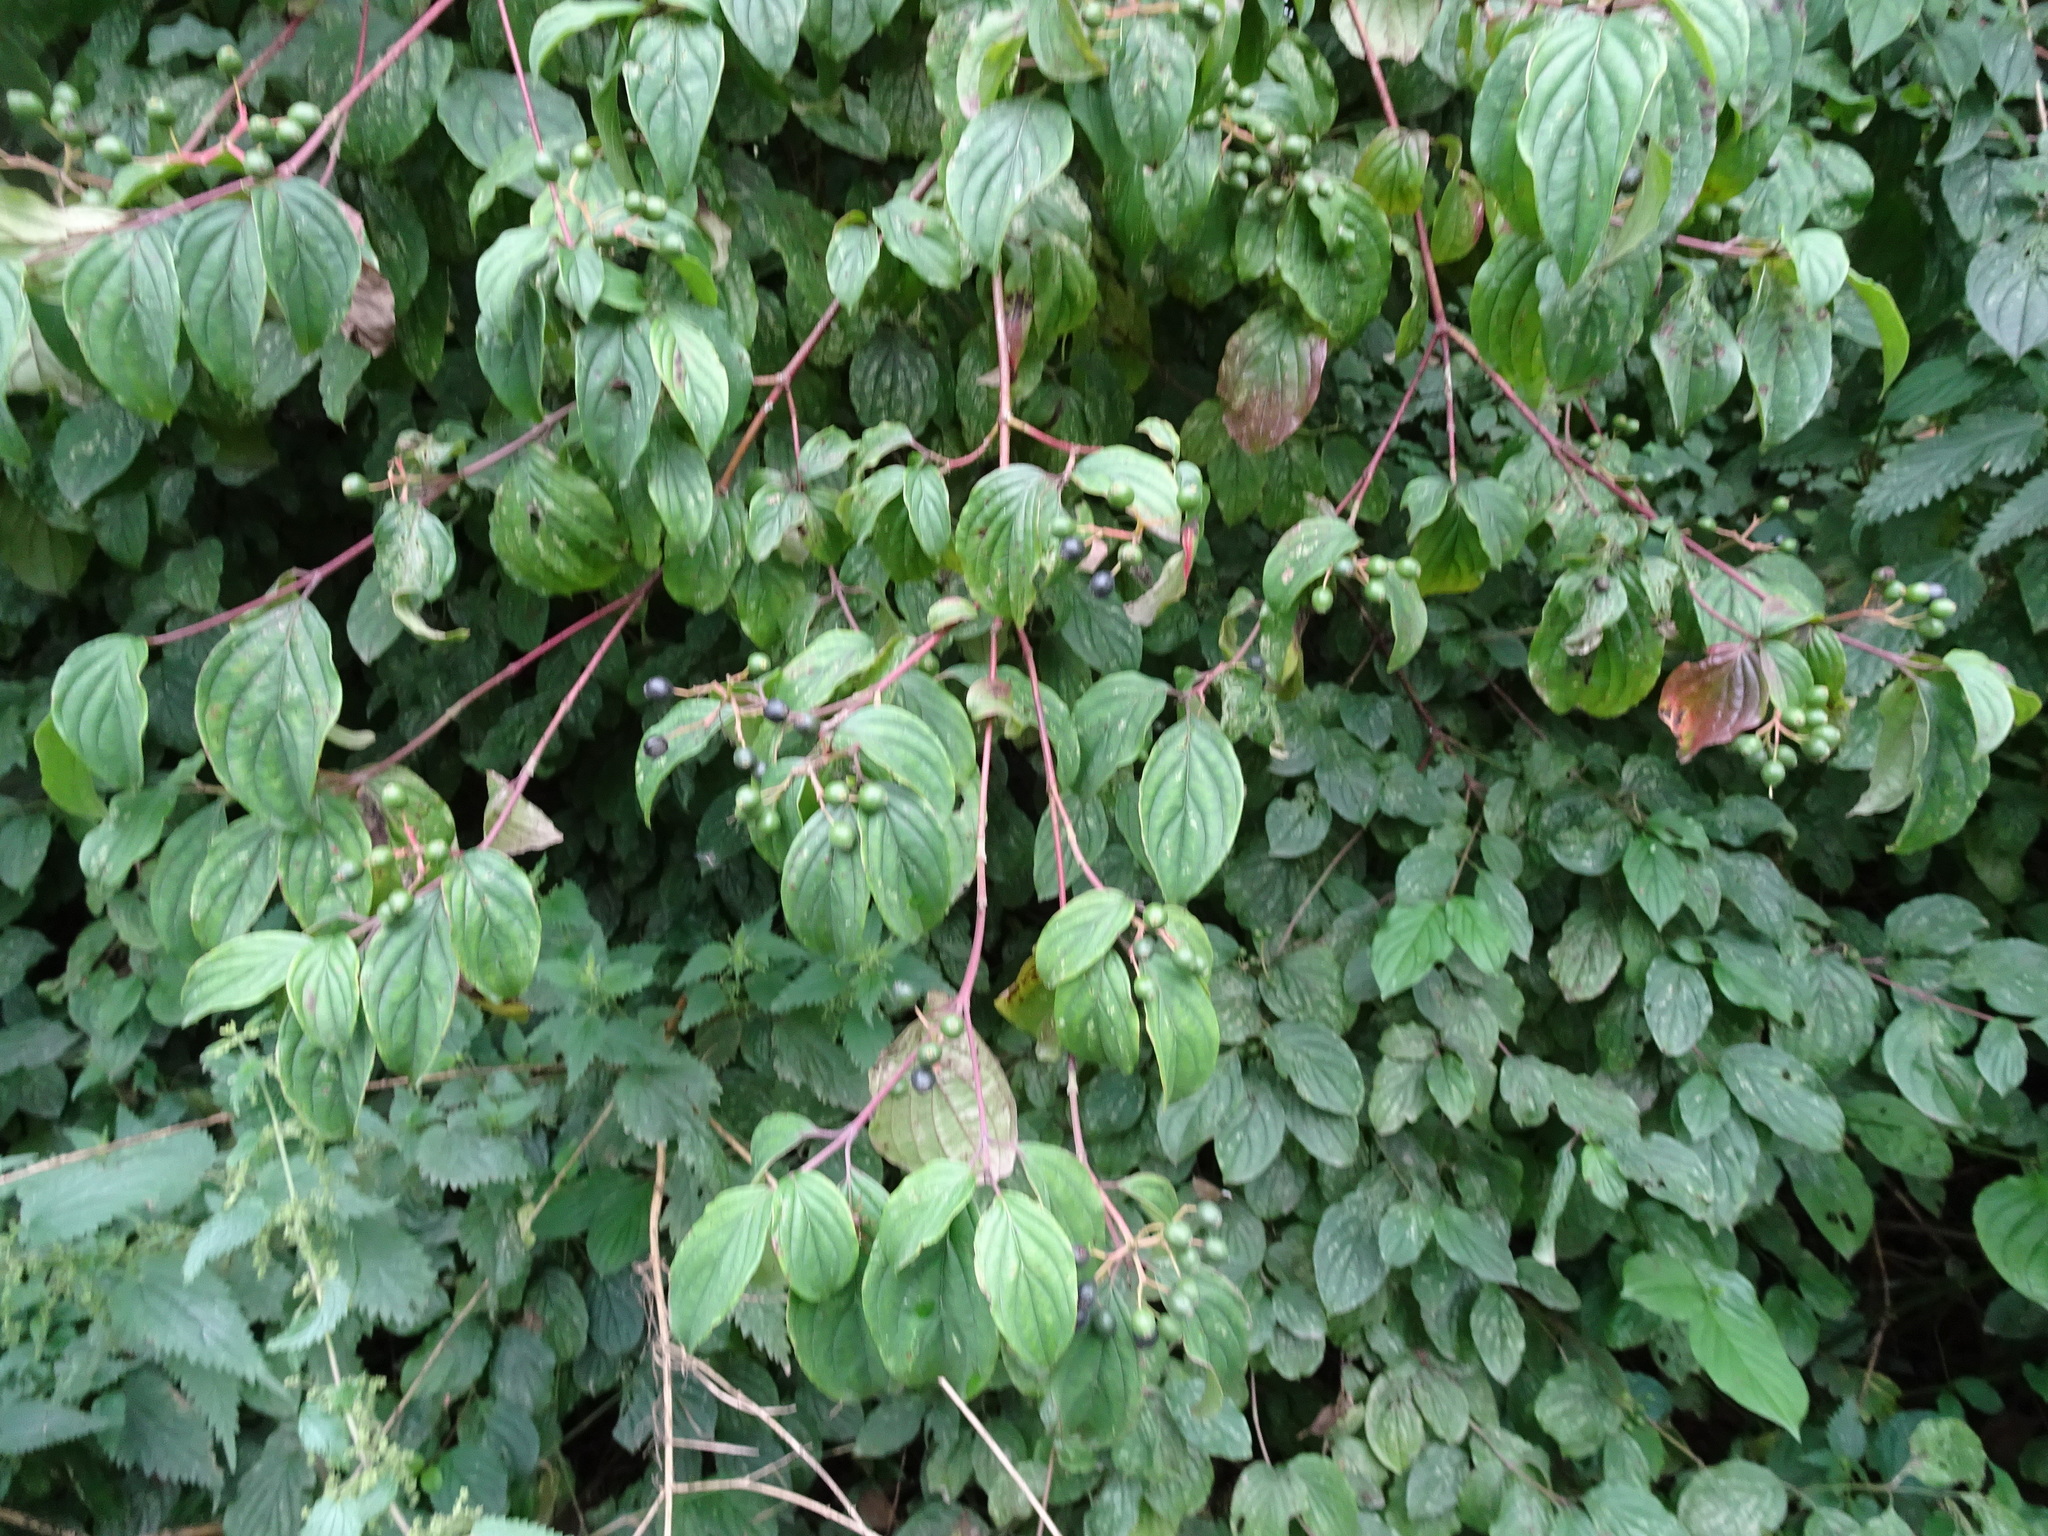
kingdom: Plantae
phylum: Tracheophyta
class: Magnoliopsida
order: Cornales
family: Cornaceae
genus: Cornus
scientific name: Cornus sanguinea
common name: Dogwood
